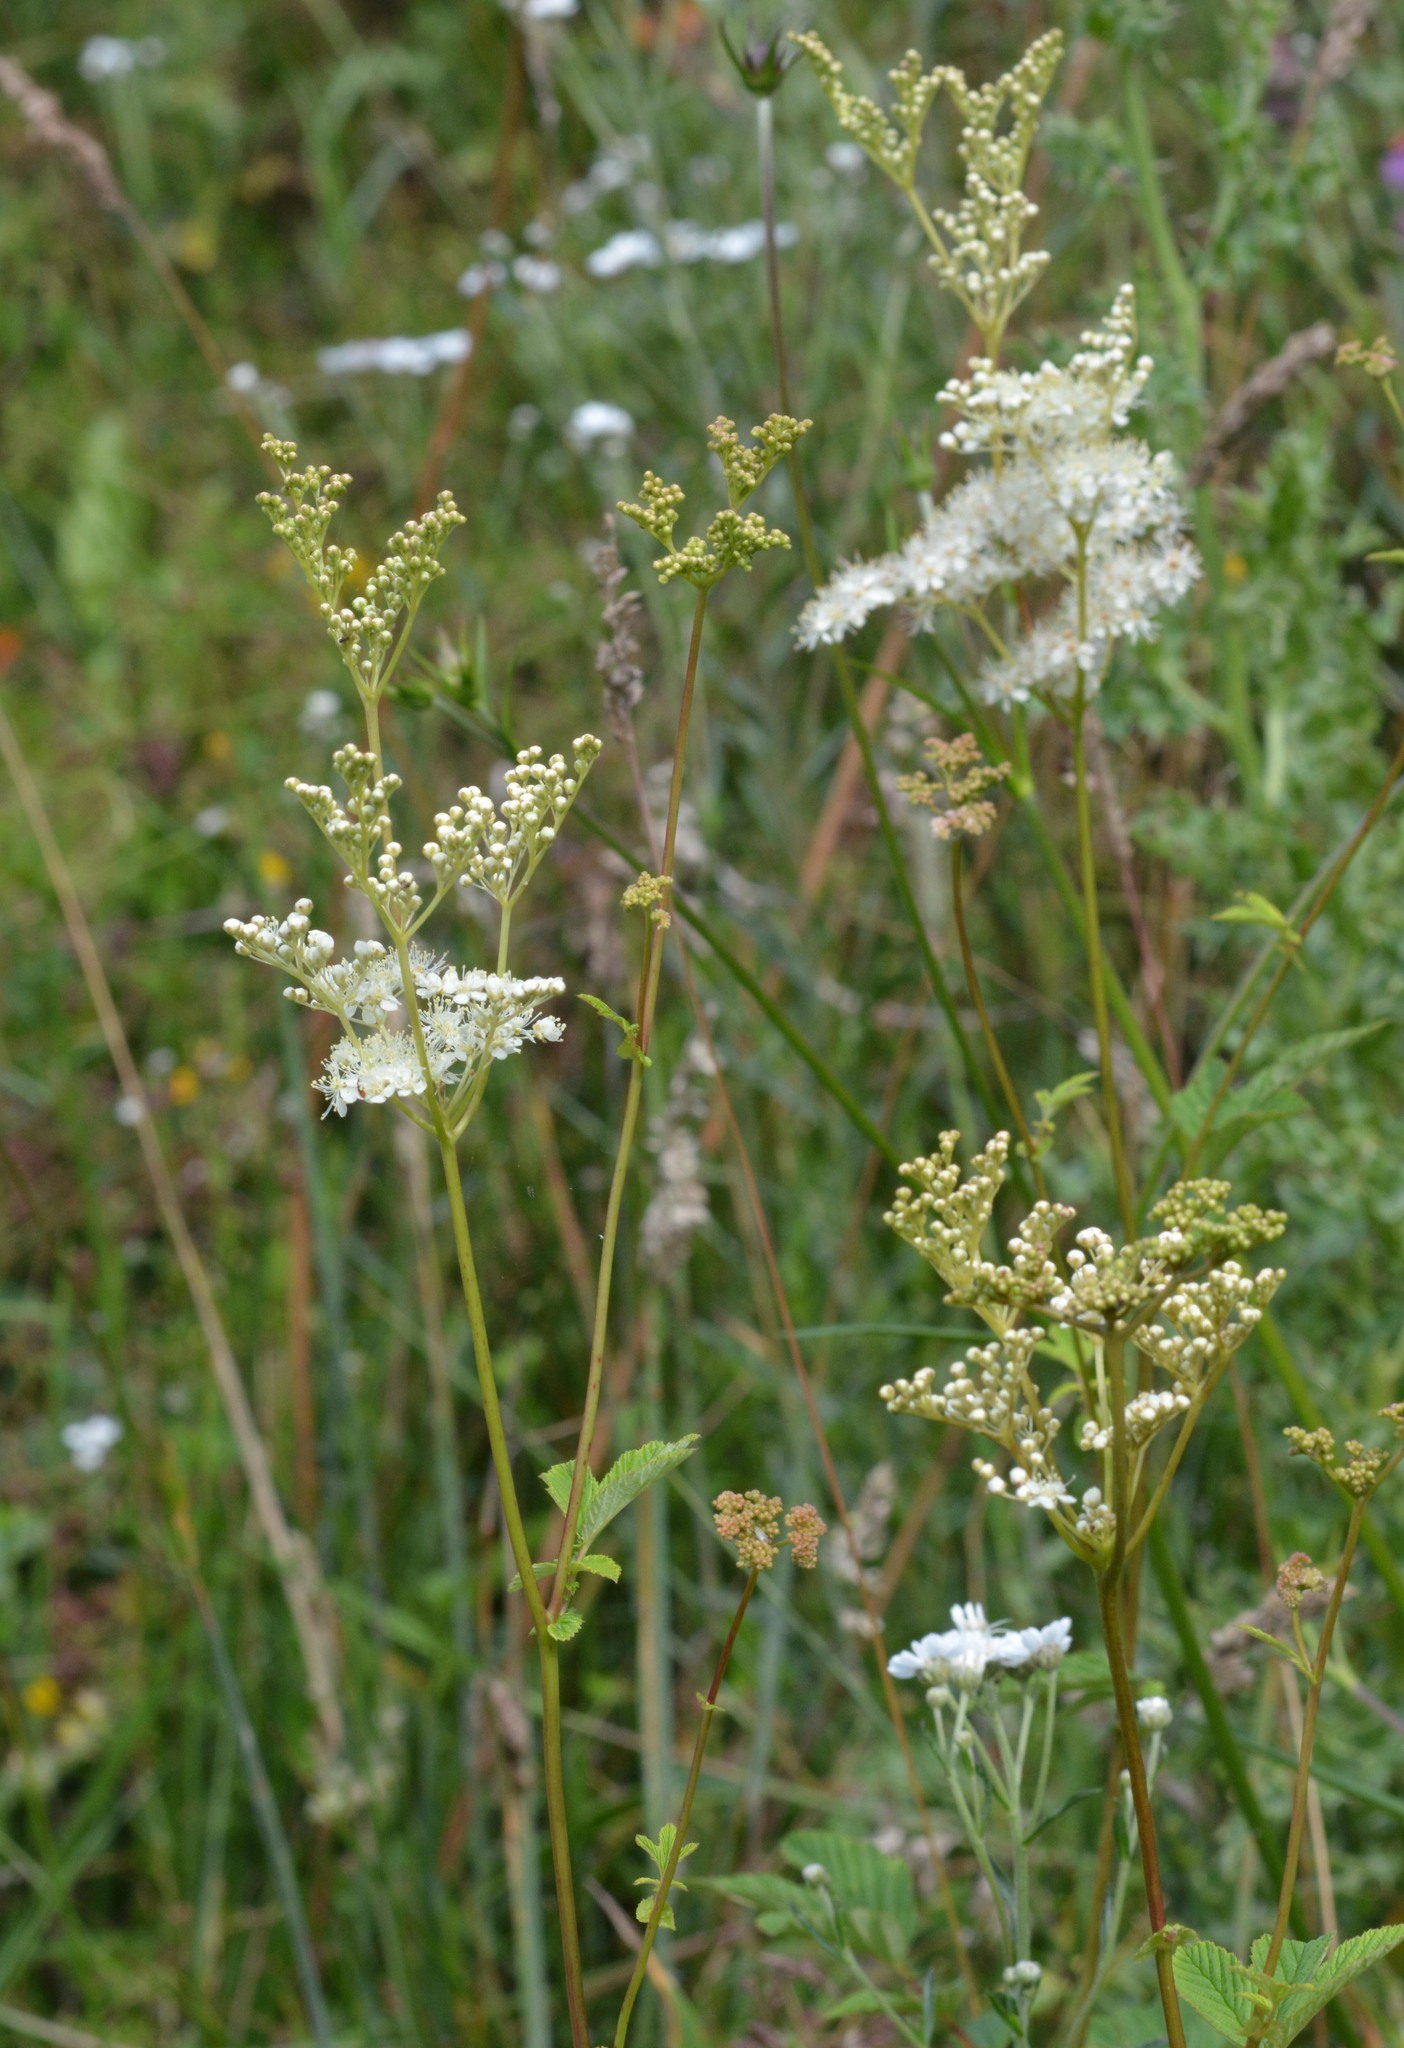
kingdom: Plantae
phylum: Tracheophyta
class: Magnoliopsida
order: Rosales
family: Rosaceae
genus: Filipendula
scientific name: Filipendula ulmaria
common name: Meadowsweet
